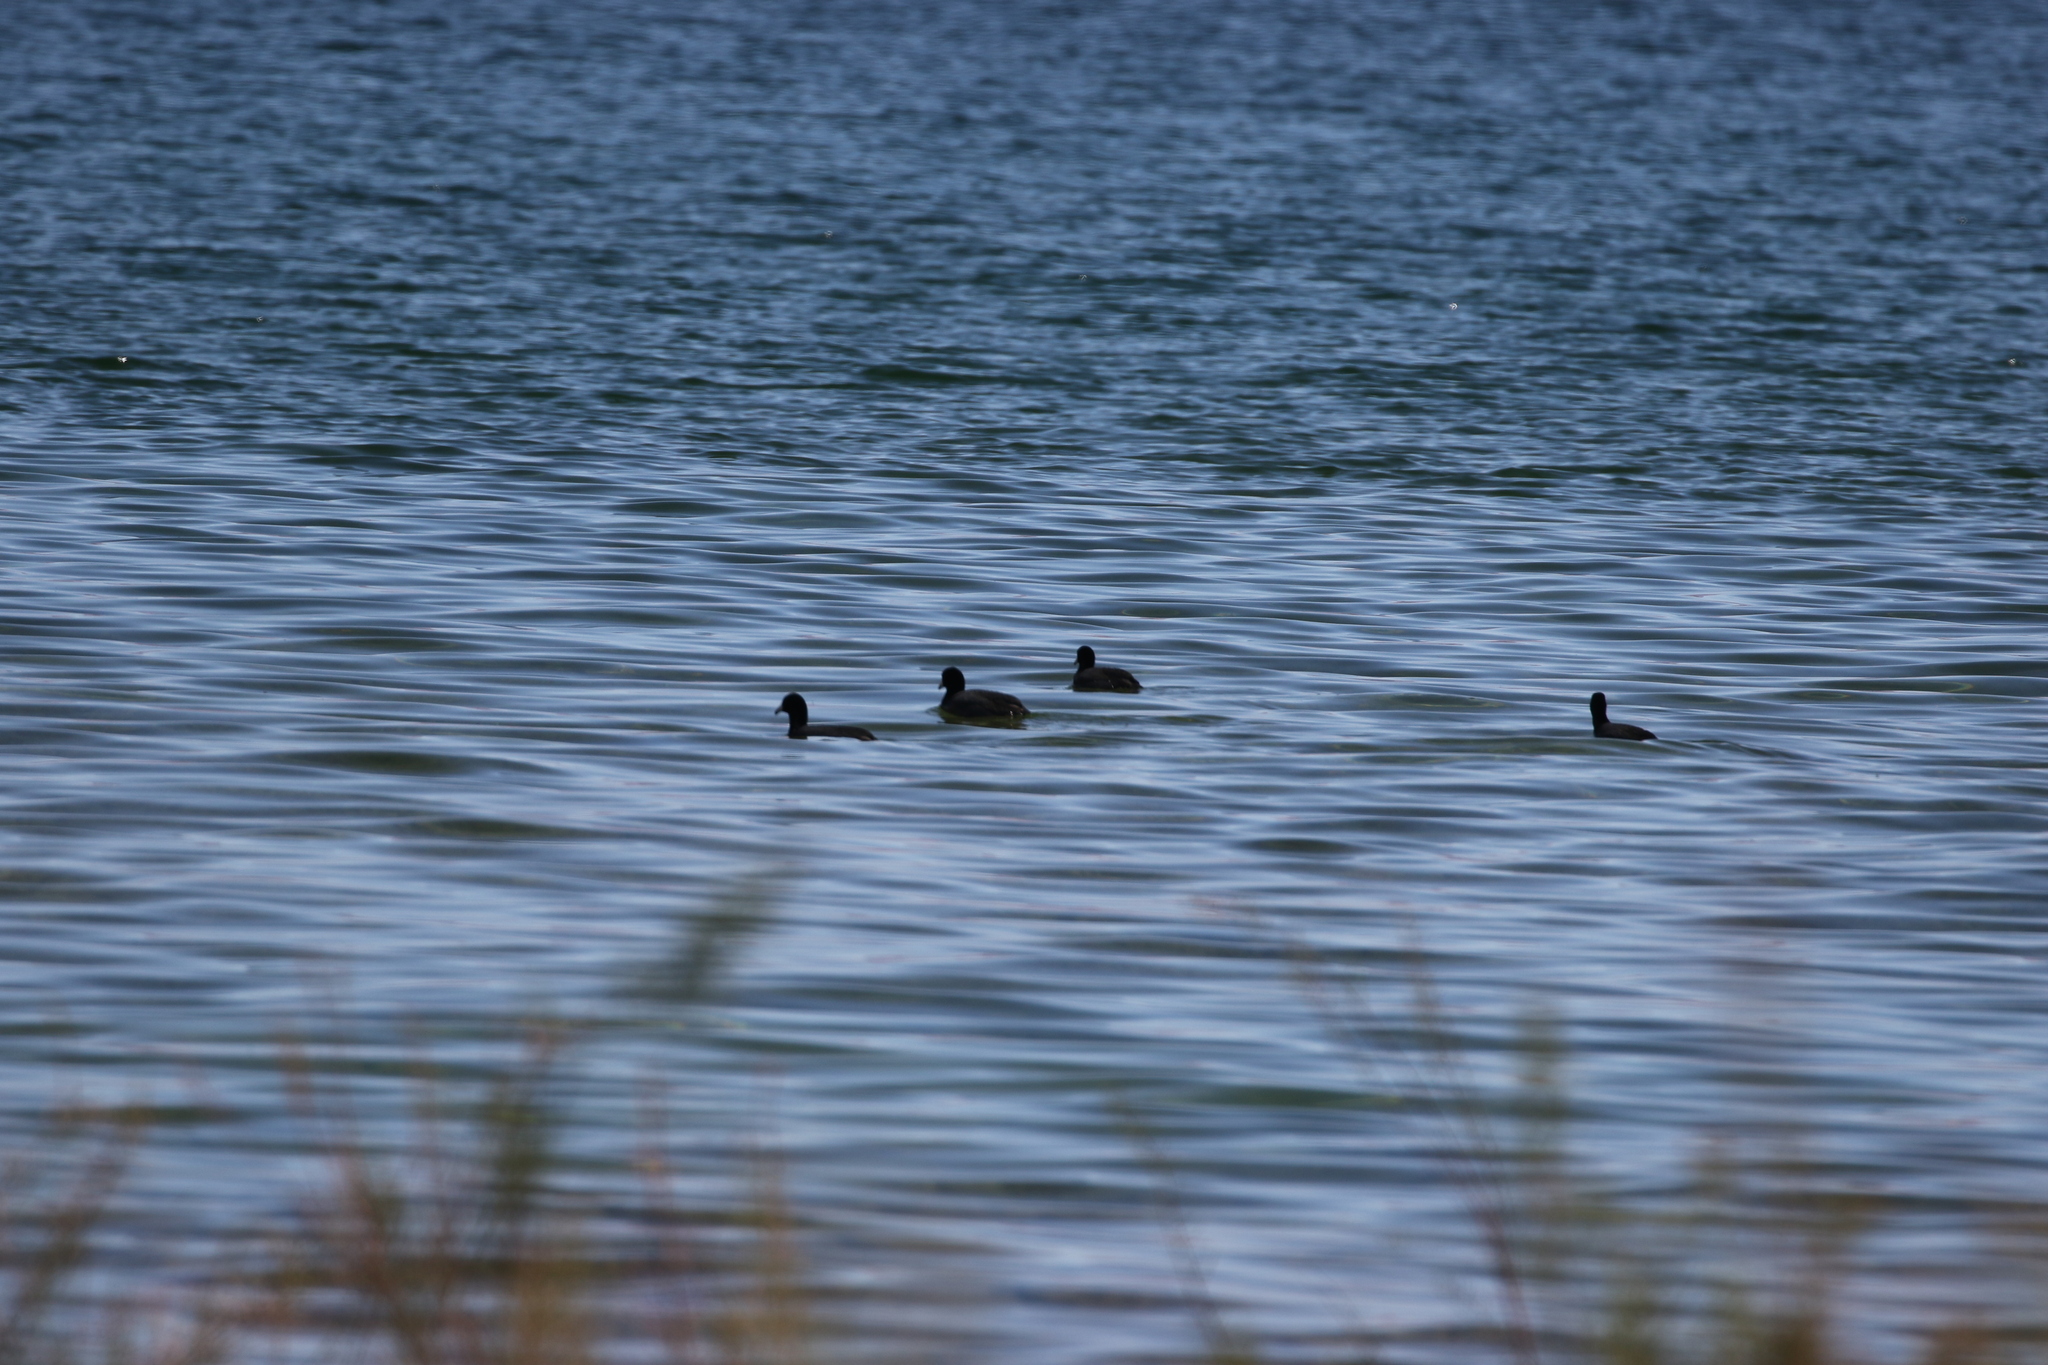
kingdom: Animalia
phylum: Chordata
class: Aves
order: Gruiformes
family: Rallidae
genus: Fulica
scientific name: Fulica americana
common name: American coot
